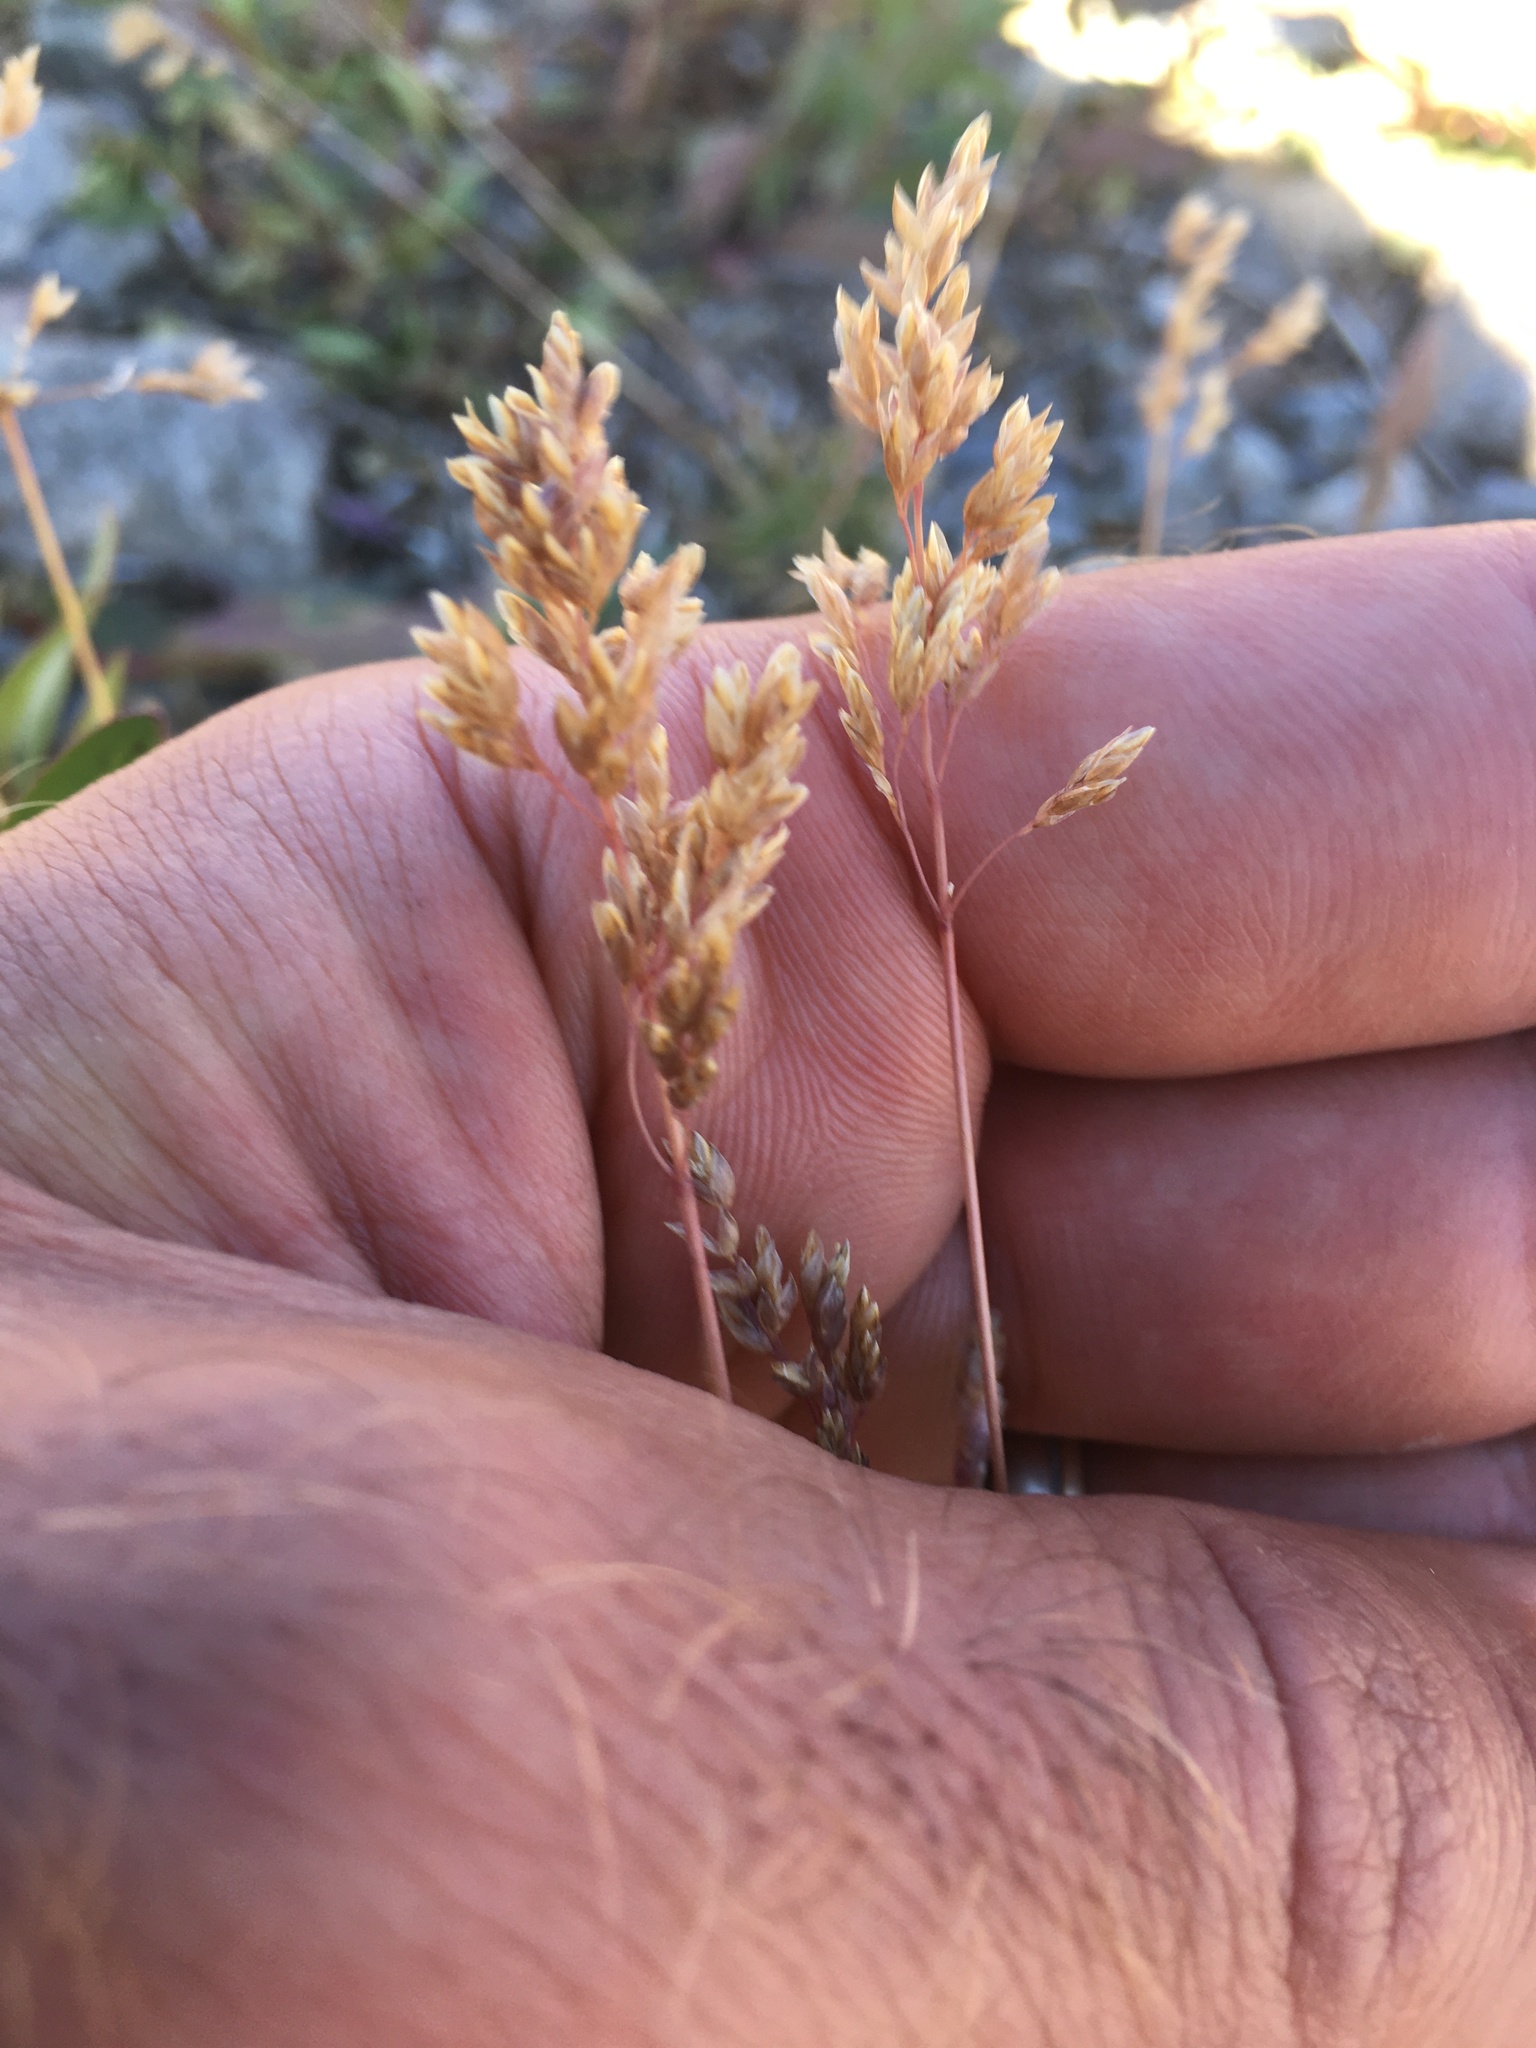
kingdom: Plantae
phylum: Tracheophyta
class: Liliopsida
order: Poales
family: Poaceae
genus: Poa
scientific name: Poa alpina
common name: Alpine bluegrass
